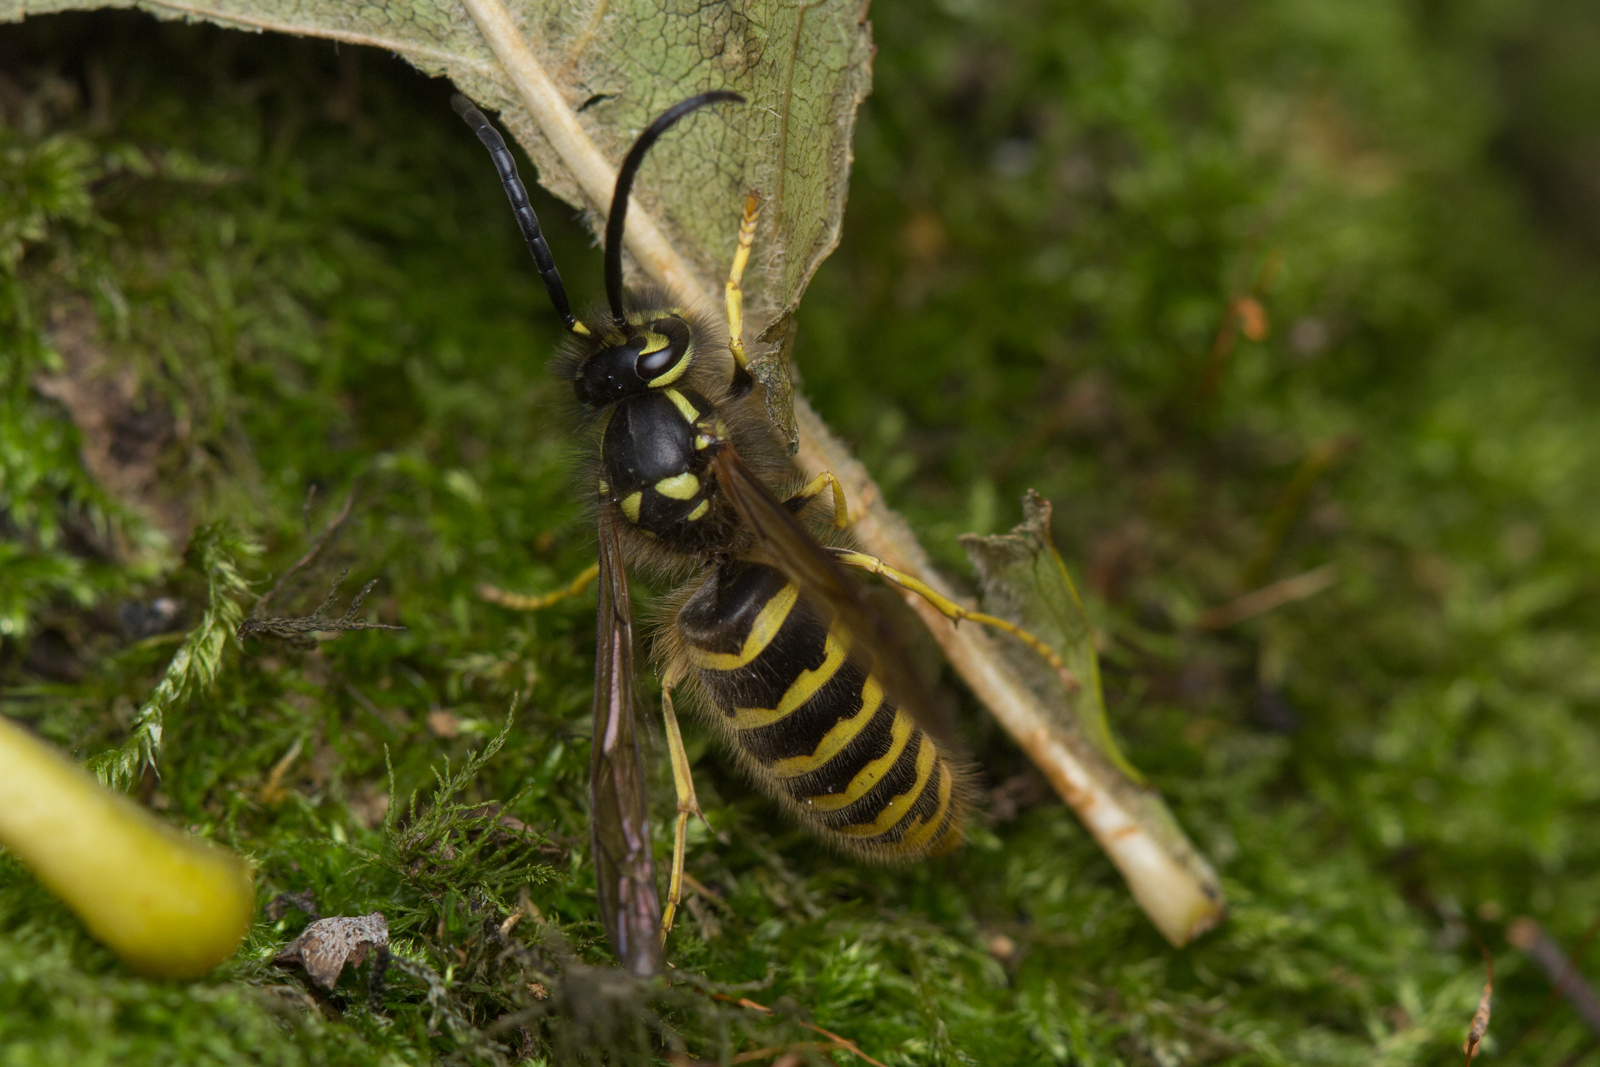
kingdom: Animalia
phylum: Arthropoda
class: Insecta
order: Hymenoptera
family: Vespidae
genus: Vespula
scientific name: Vespula vulgaris
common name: Common wasp
